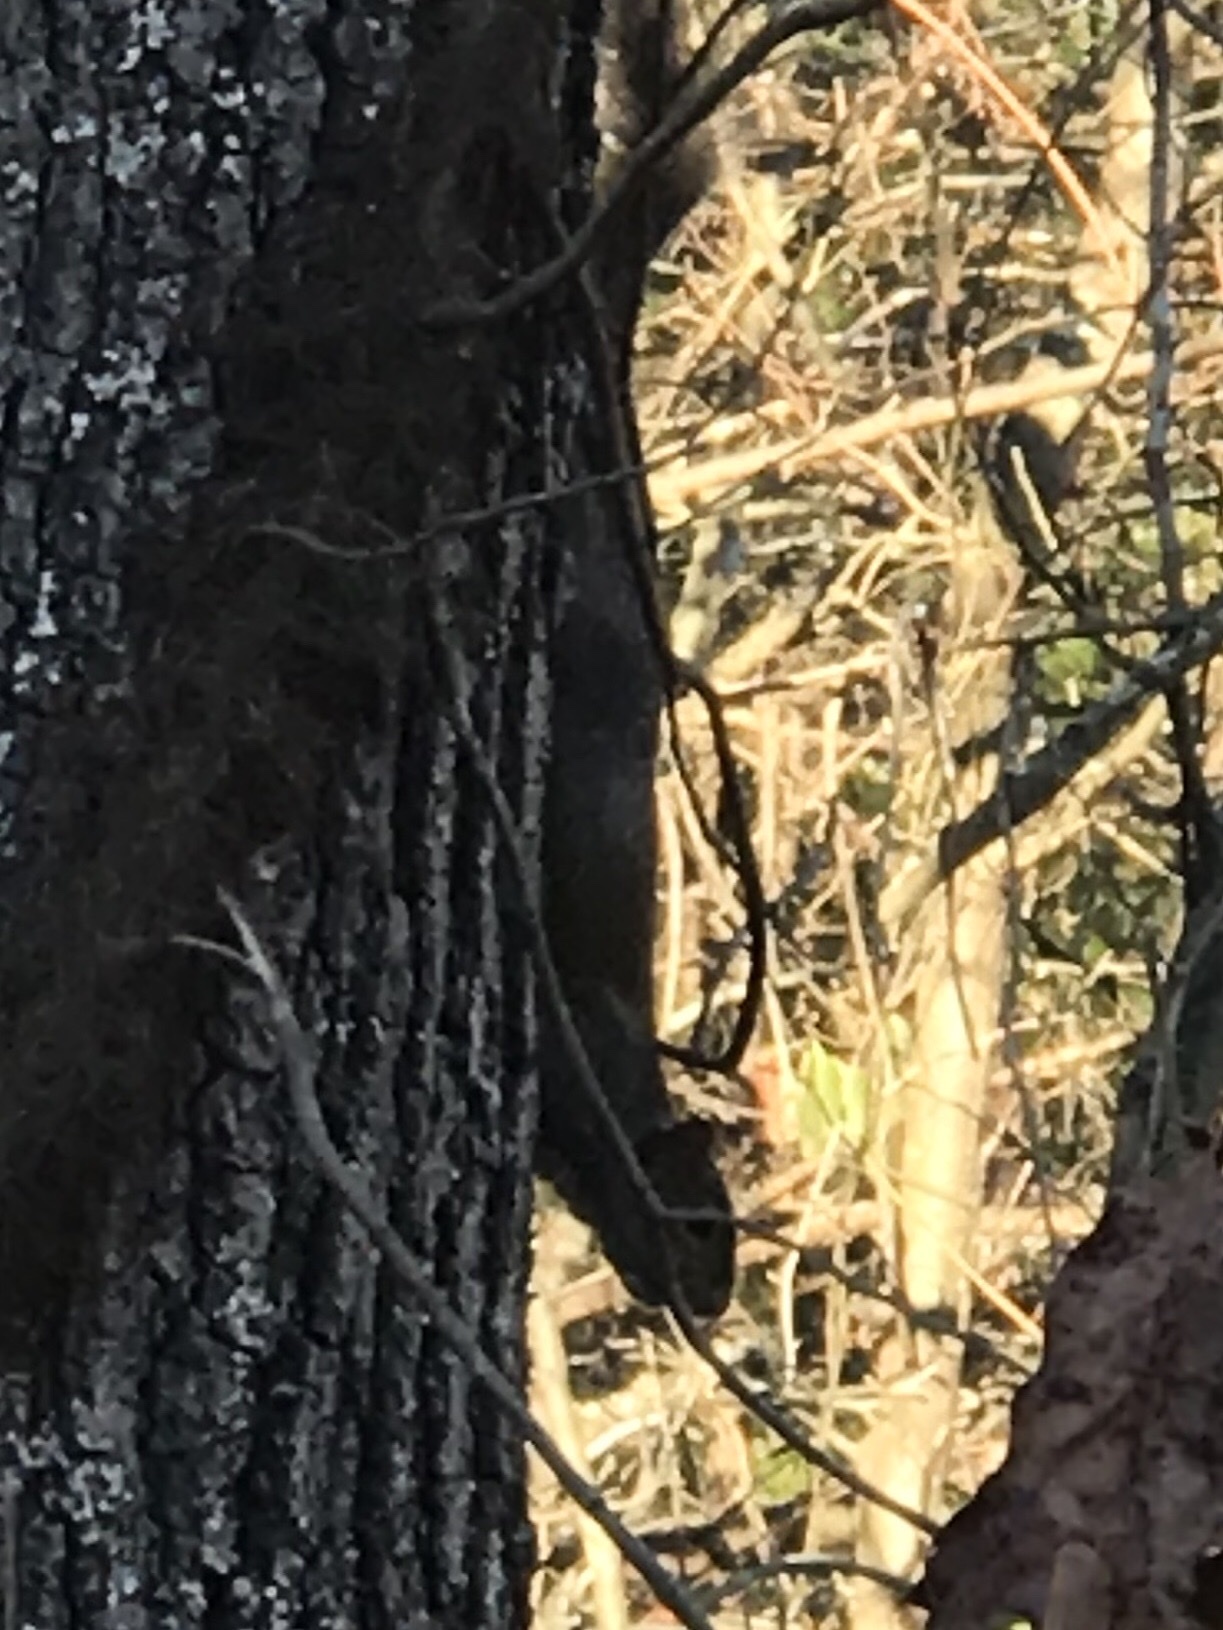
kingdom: Animalia
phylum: Chordata
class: Mammalia
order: Rodentia
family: Sciuridae
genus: Sciurus
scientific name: Sciurus carolinensis
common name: Eastern gray squirrel
